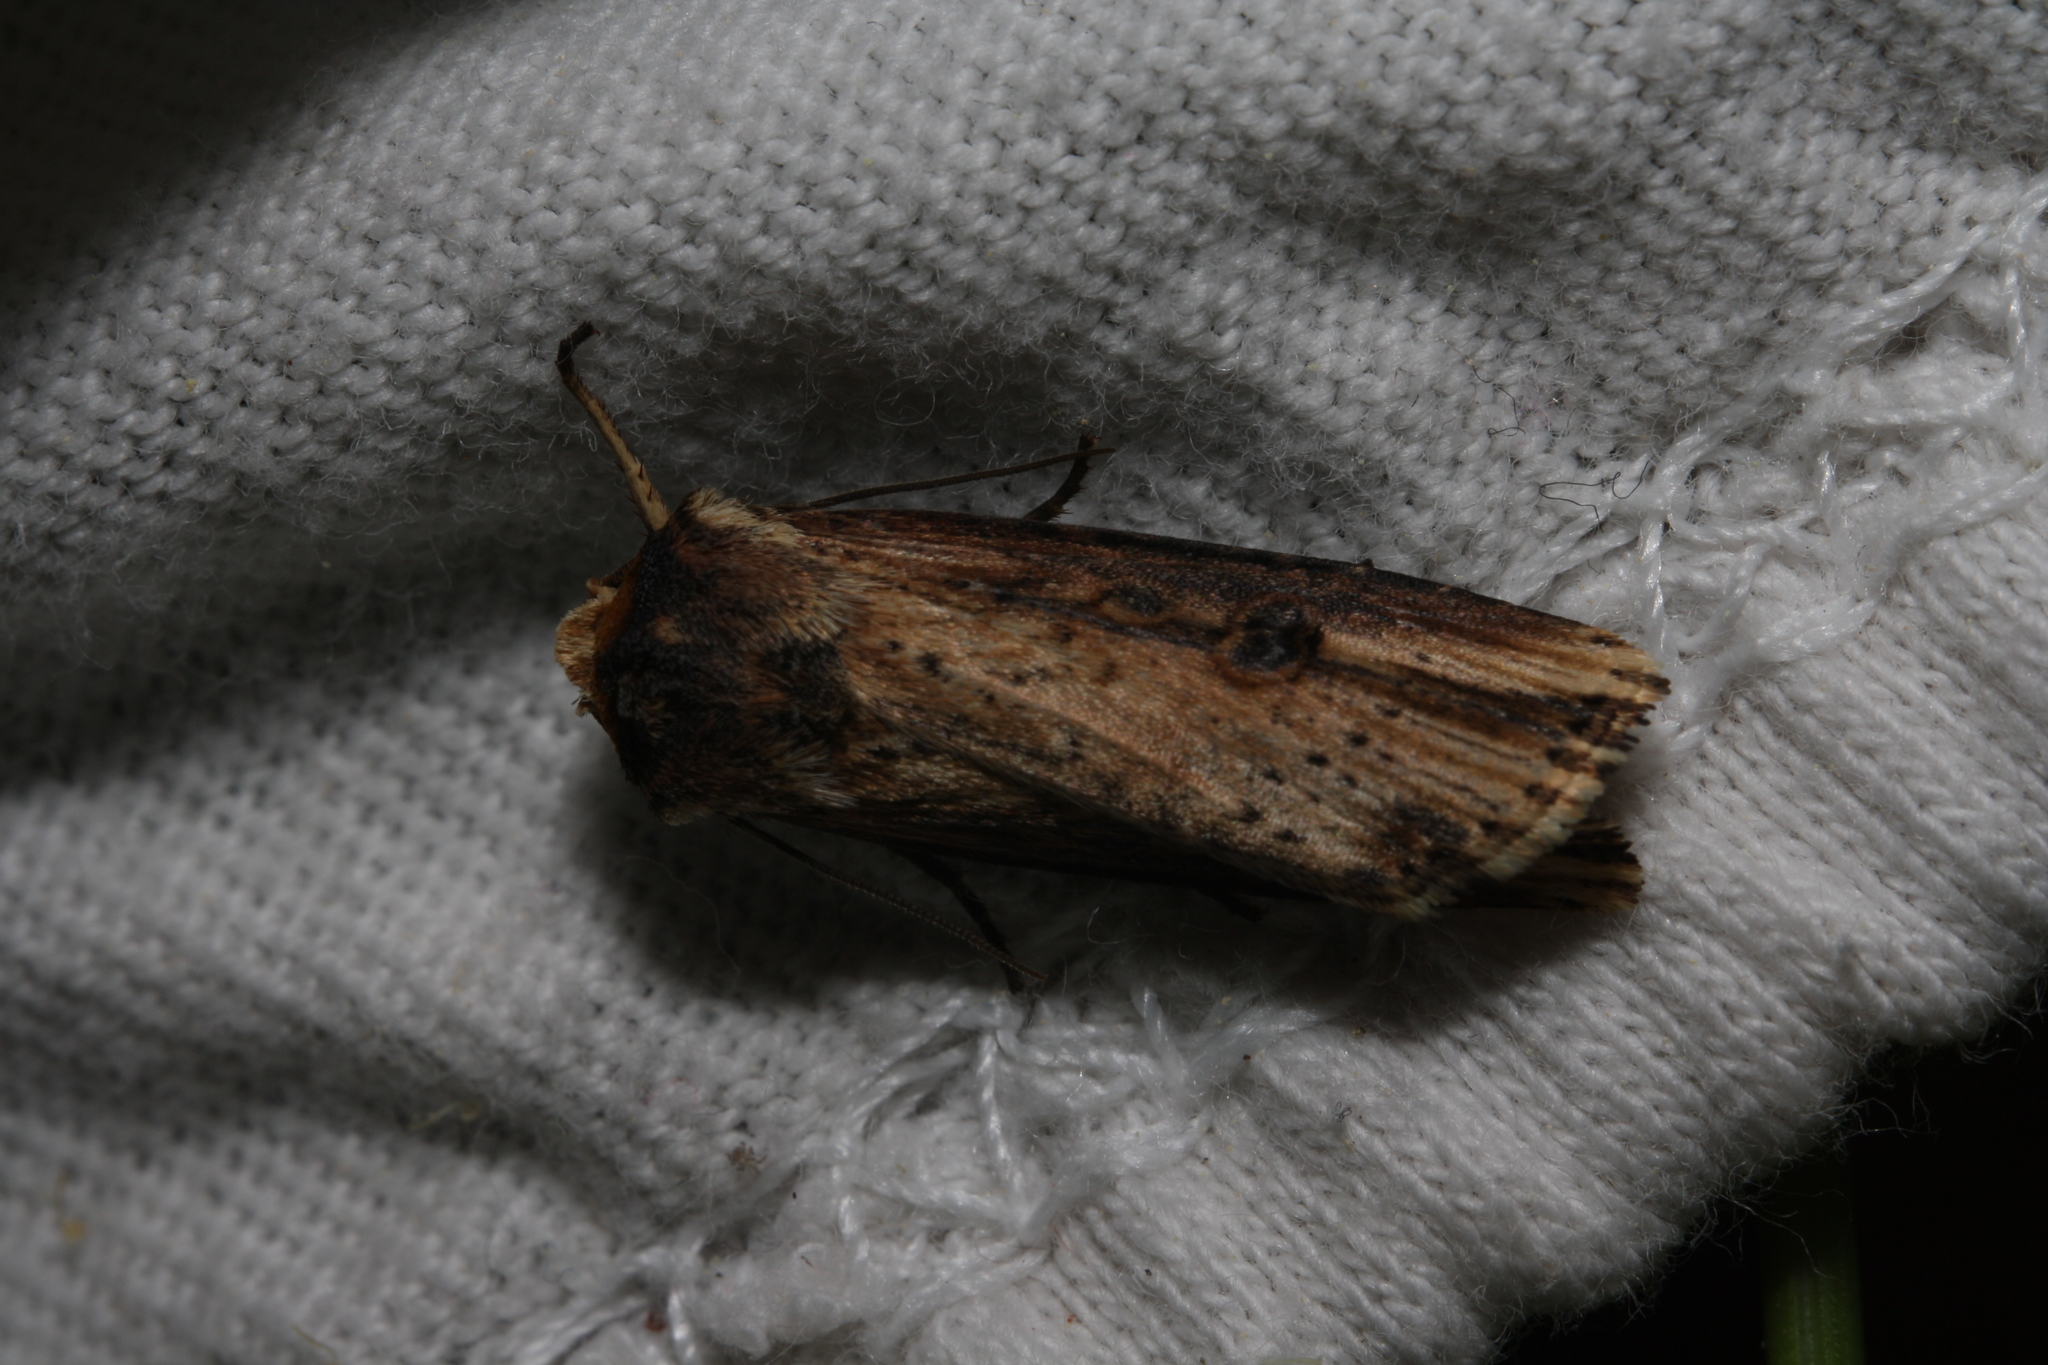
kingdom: Animalia
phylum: Arthropoda
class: Insecta
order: Lepidoptera
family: Noctuidae
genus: Axylia
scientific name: Axylia putris
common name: Flame
